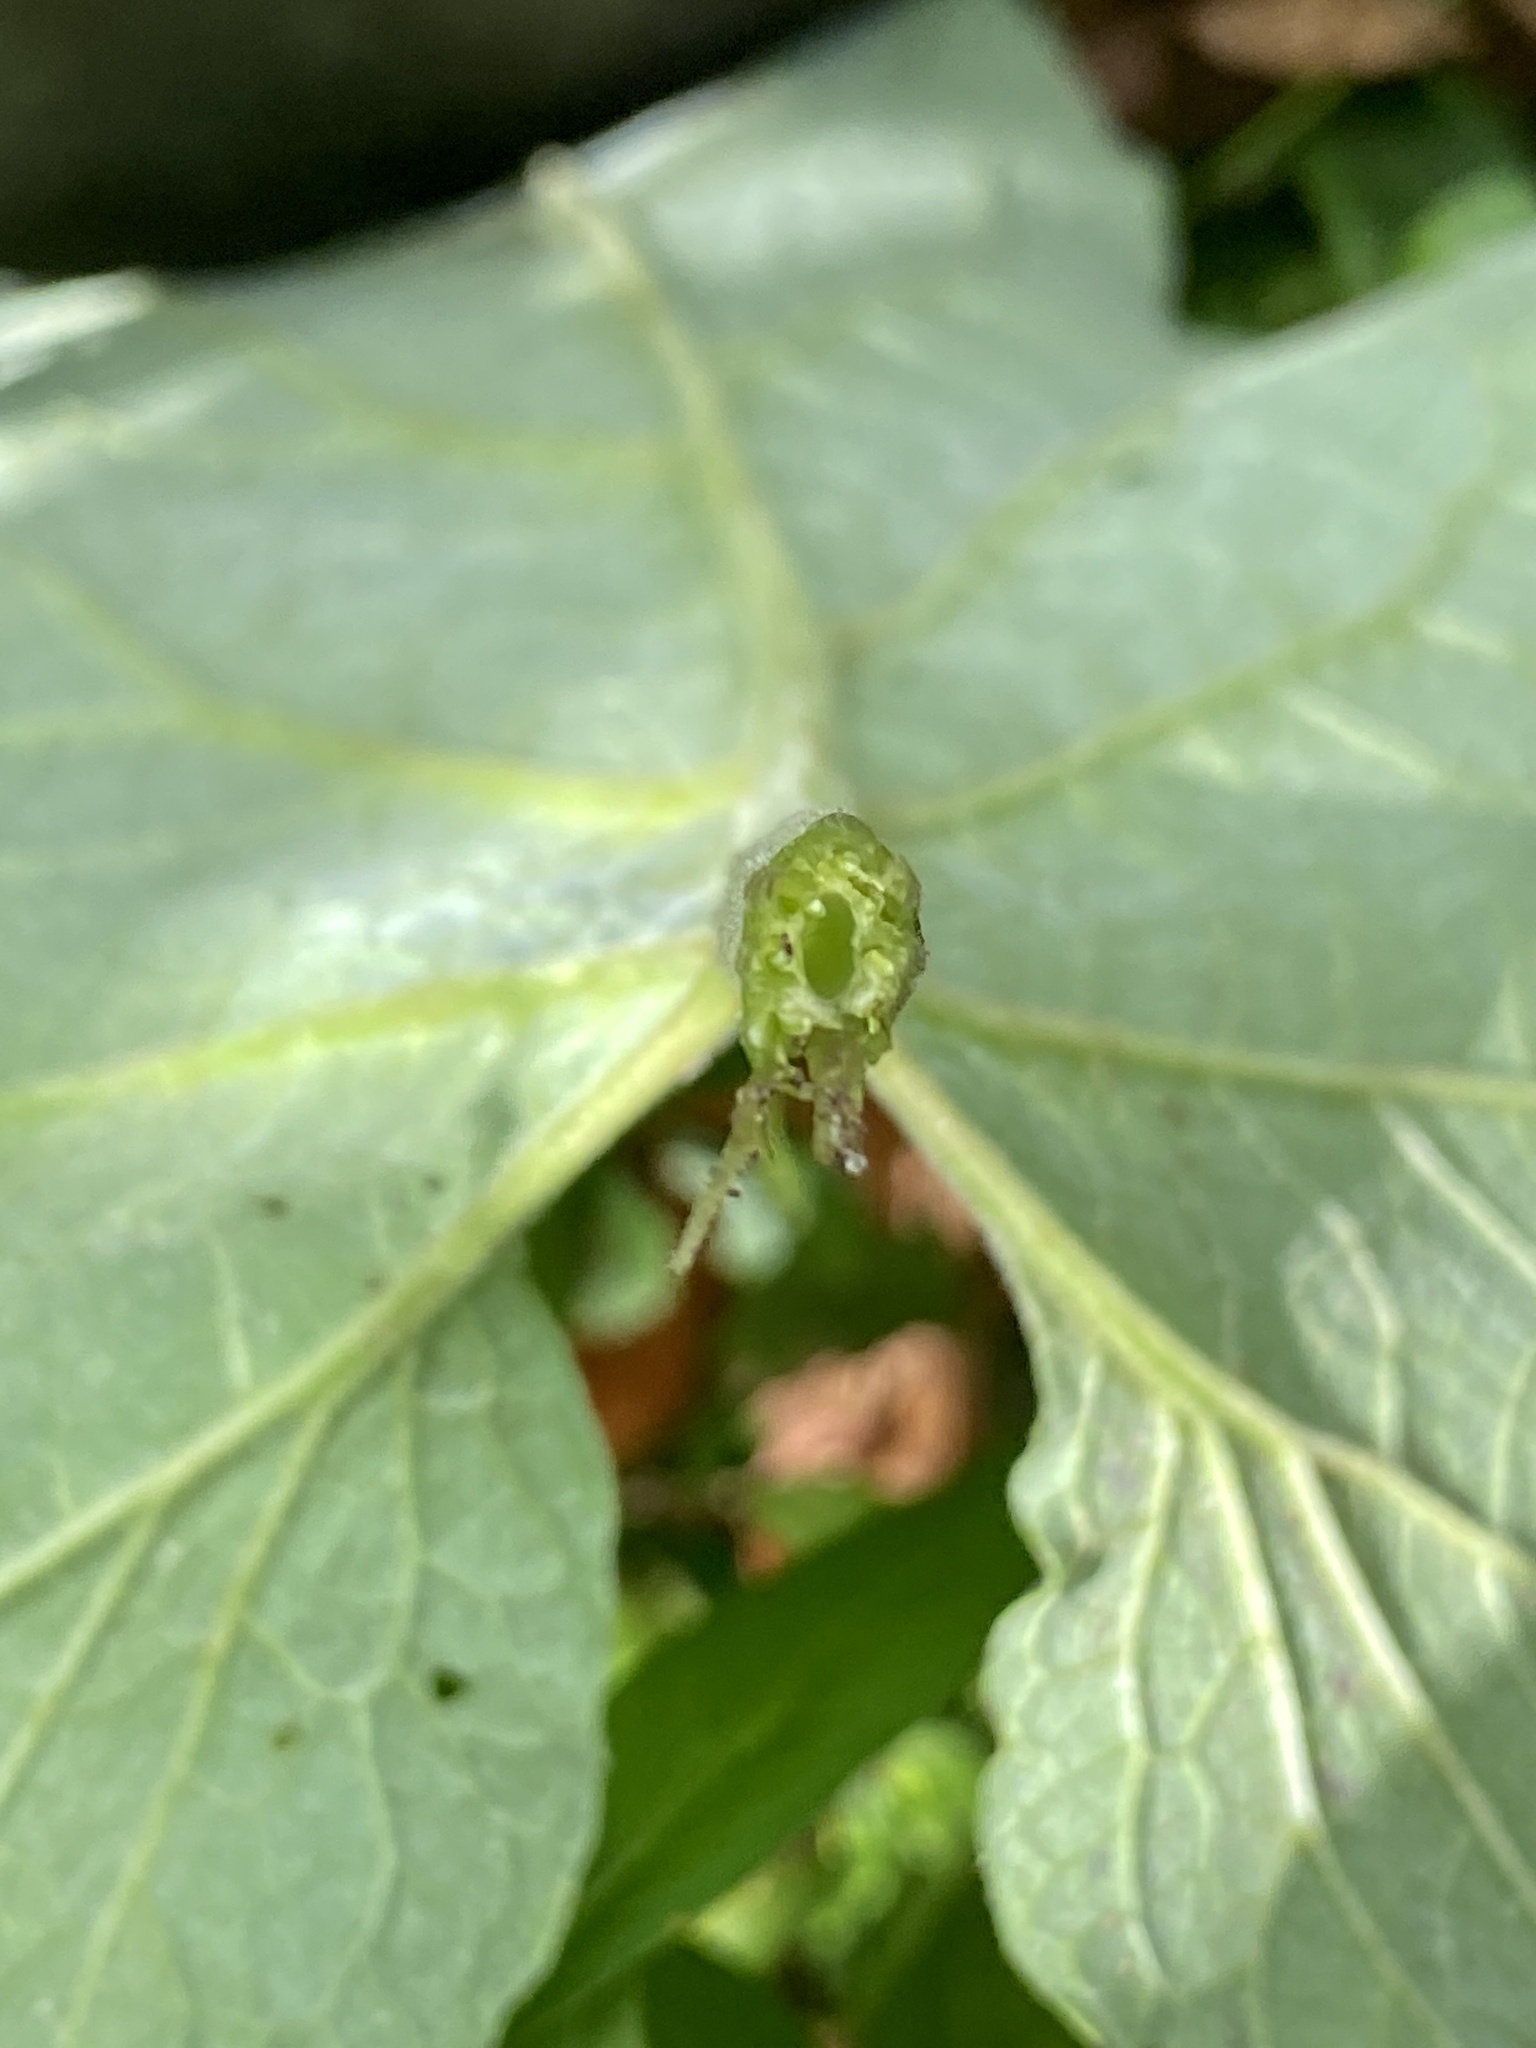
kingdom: Plantae
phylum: Tracheophyta
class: Magnoliopsida
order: Asterales
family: Asteraceae
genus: Arctium
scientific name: Arctium minus
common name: Lesser burdock
